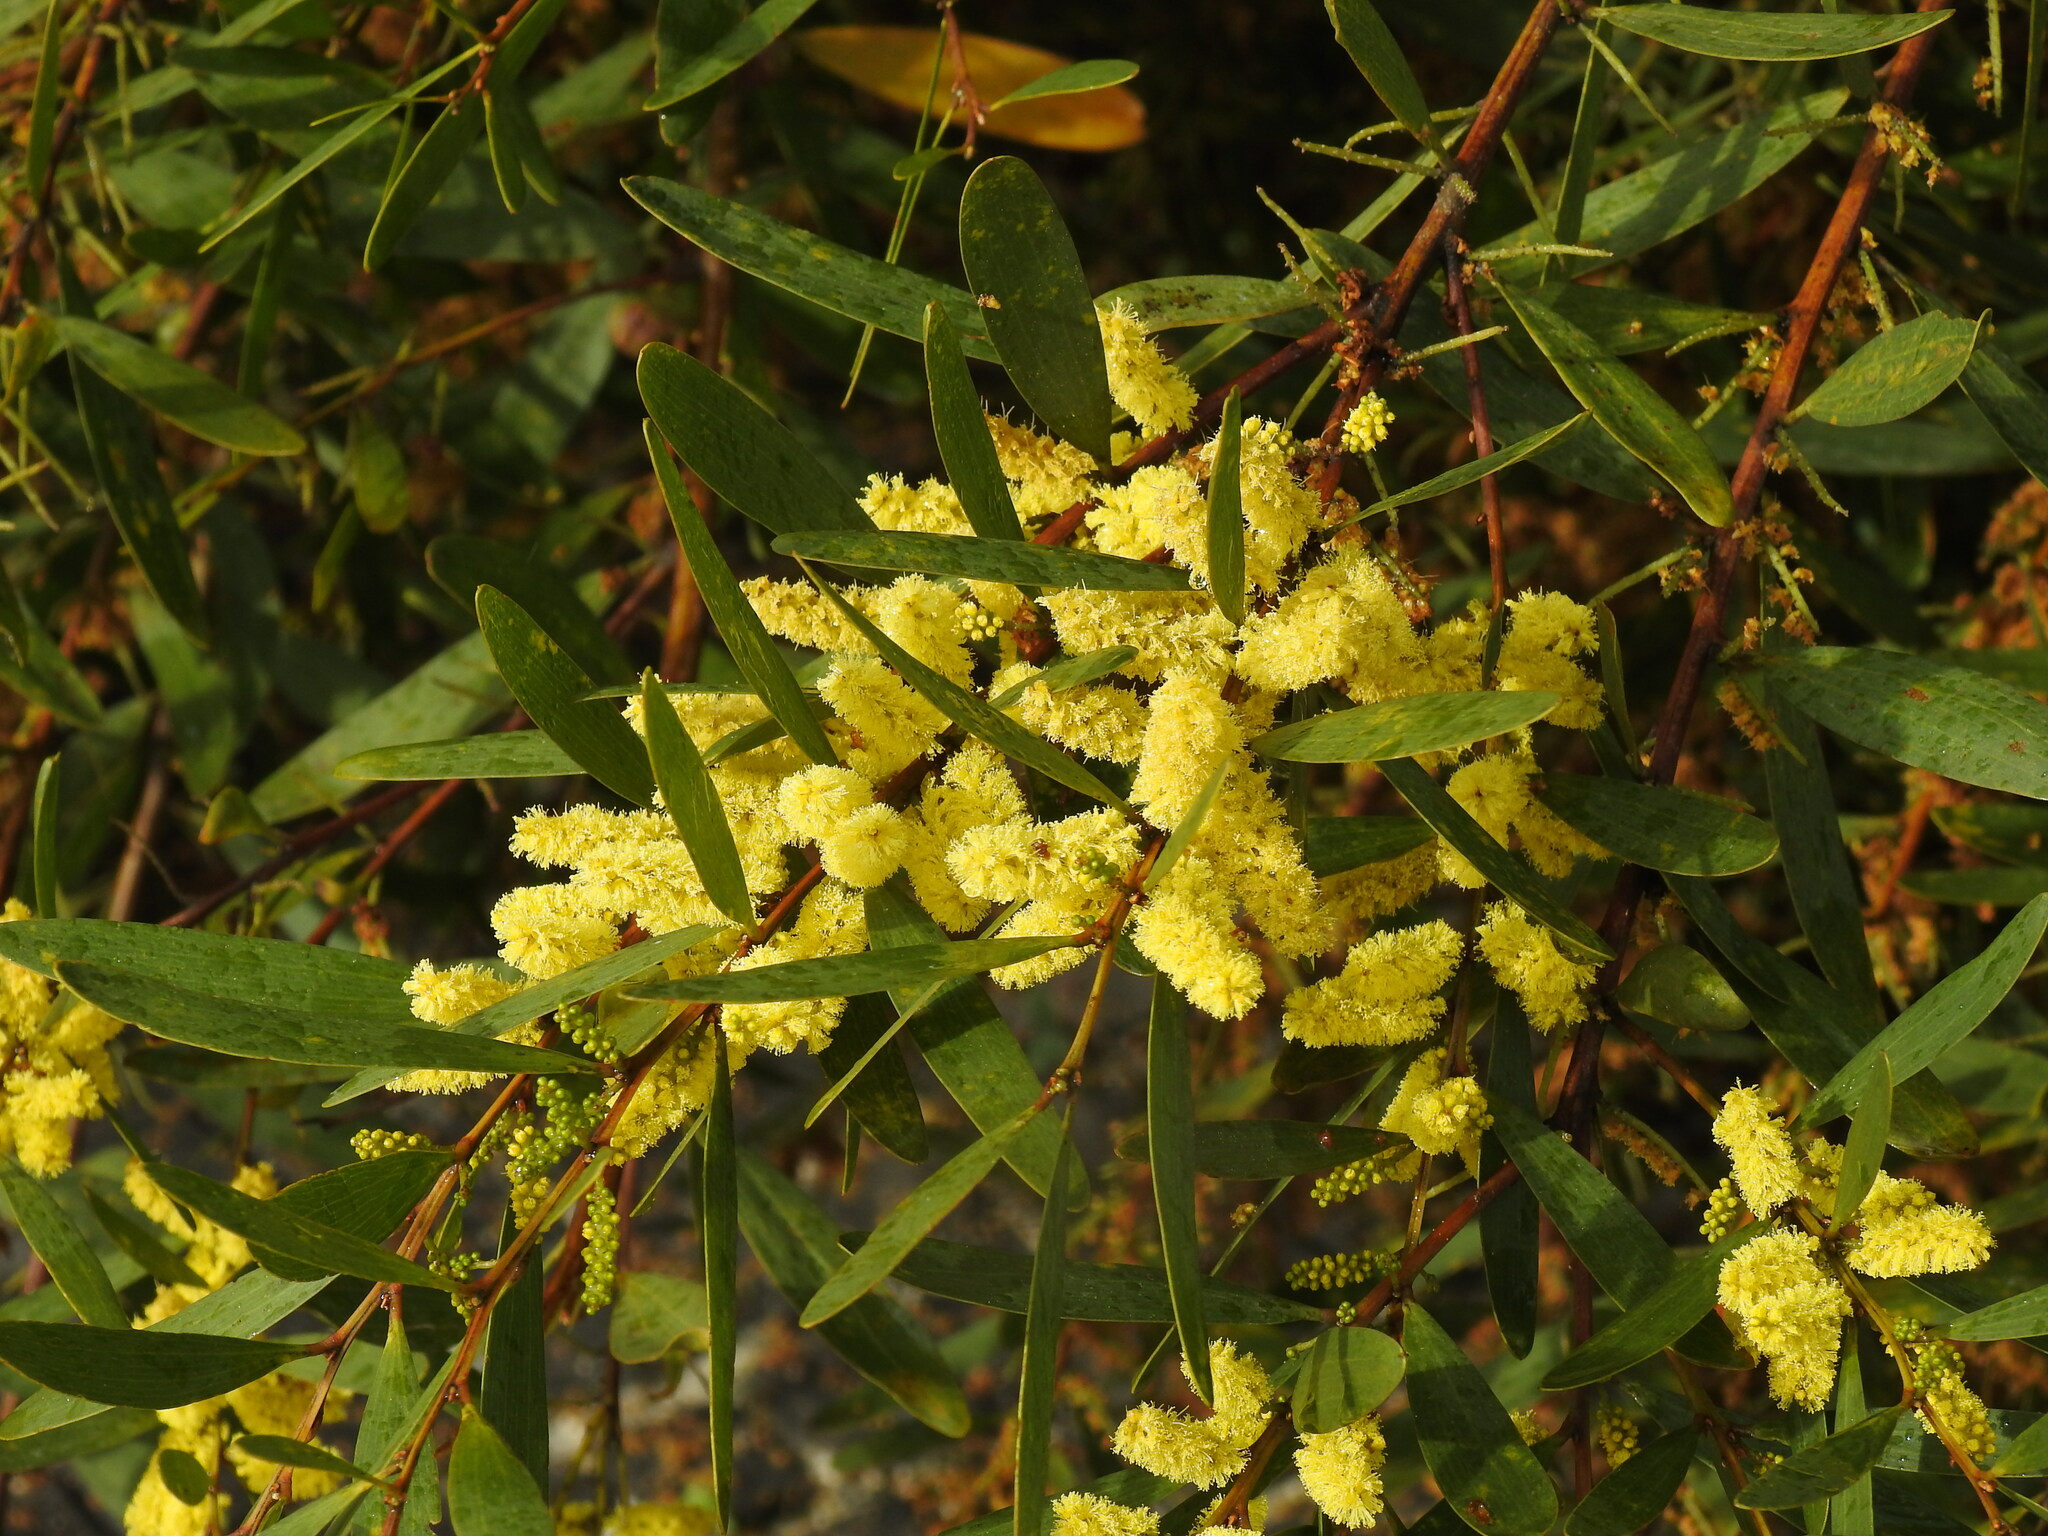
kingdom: Plantae
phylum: Tracheophyta
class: Magnoliopsida
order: Fabales
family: Fabaceae
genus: Acacia
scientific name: Acacia longifolia
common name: Sydney golden wattle
